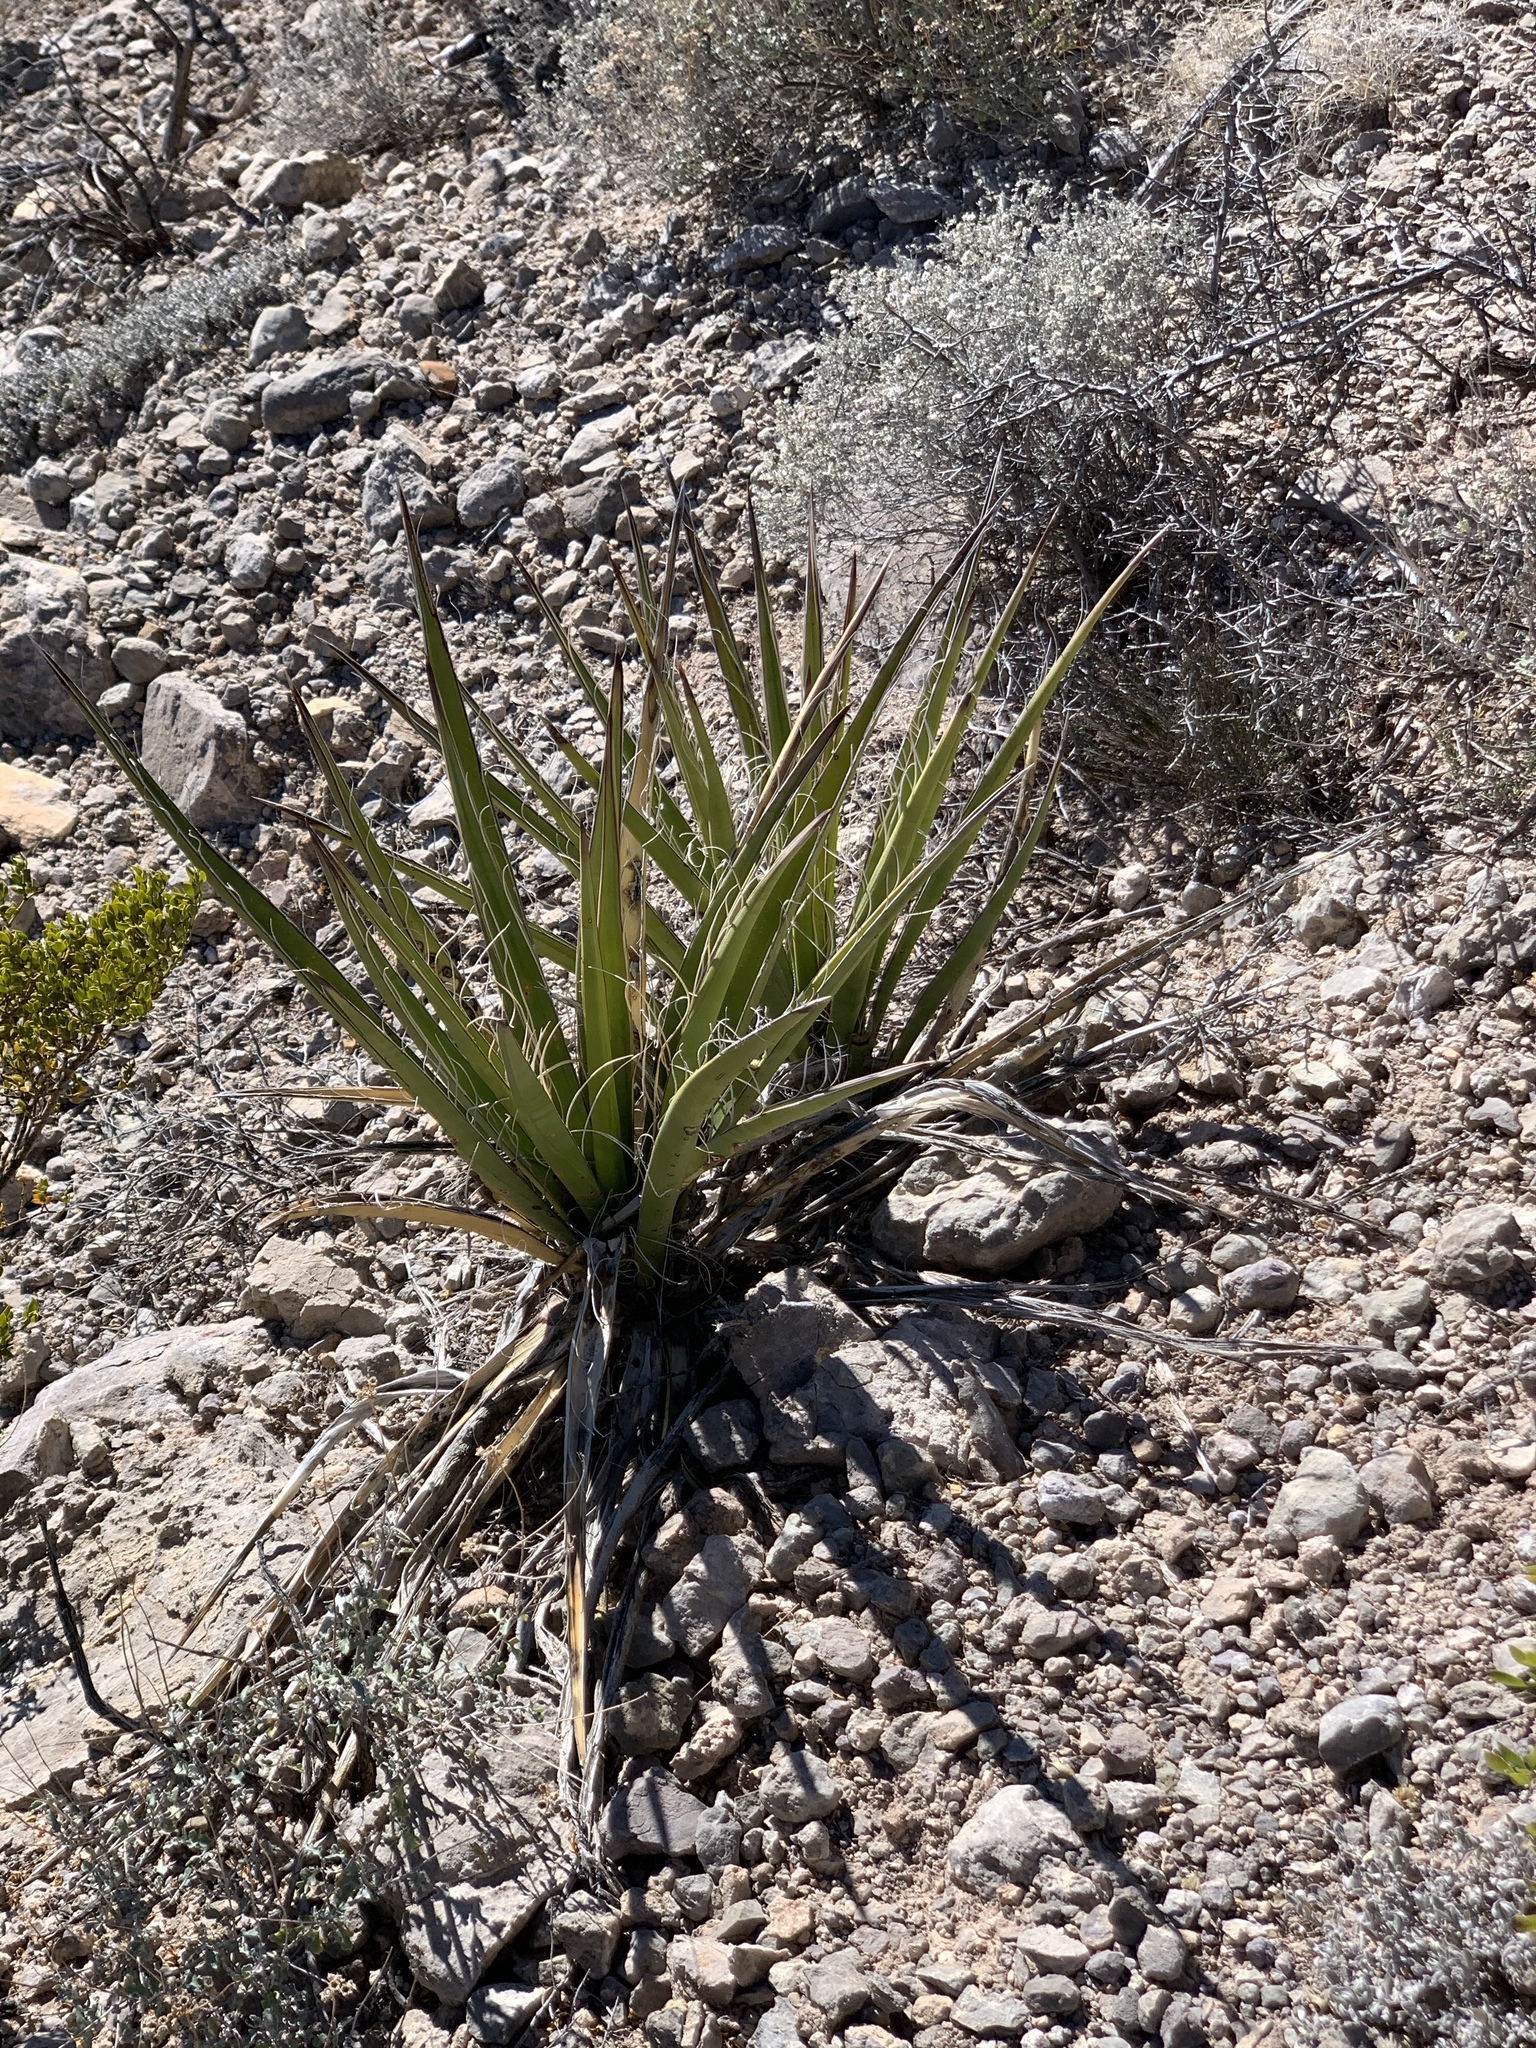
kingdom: Plantae
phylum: Tracheophyta
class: Liliopsida
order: Asparagales
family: Asparagaceae
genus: Yucca
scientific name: Yucca baccata
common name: Banana yucca
